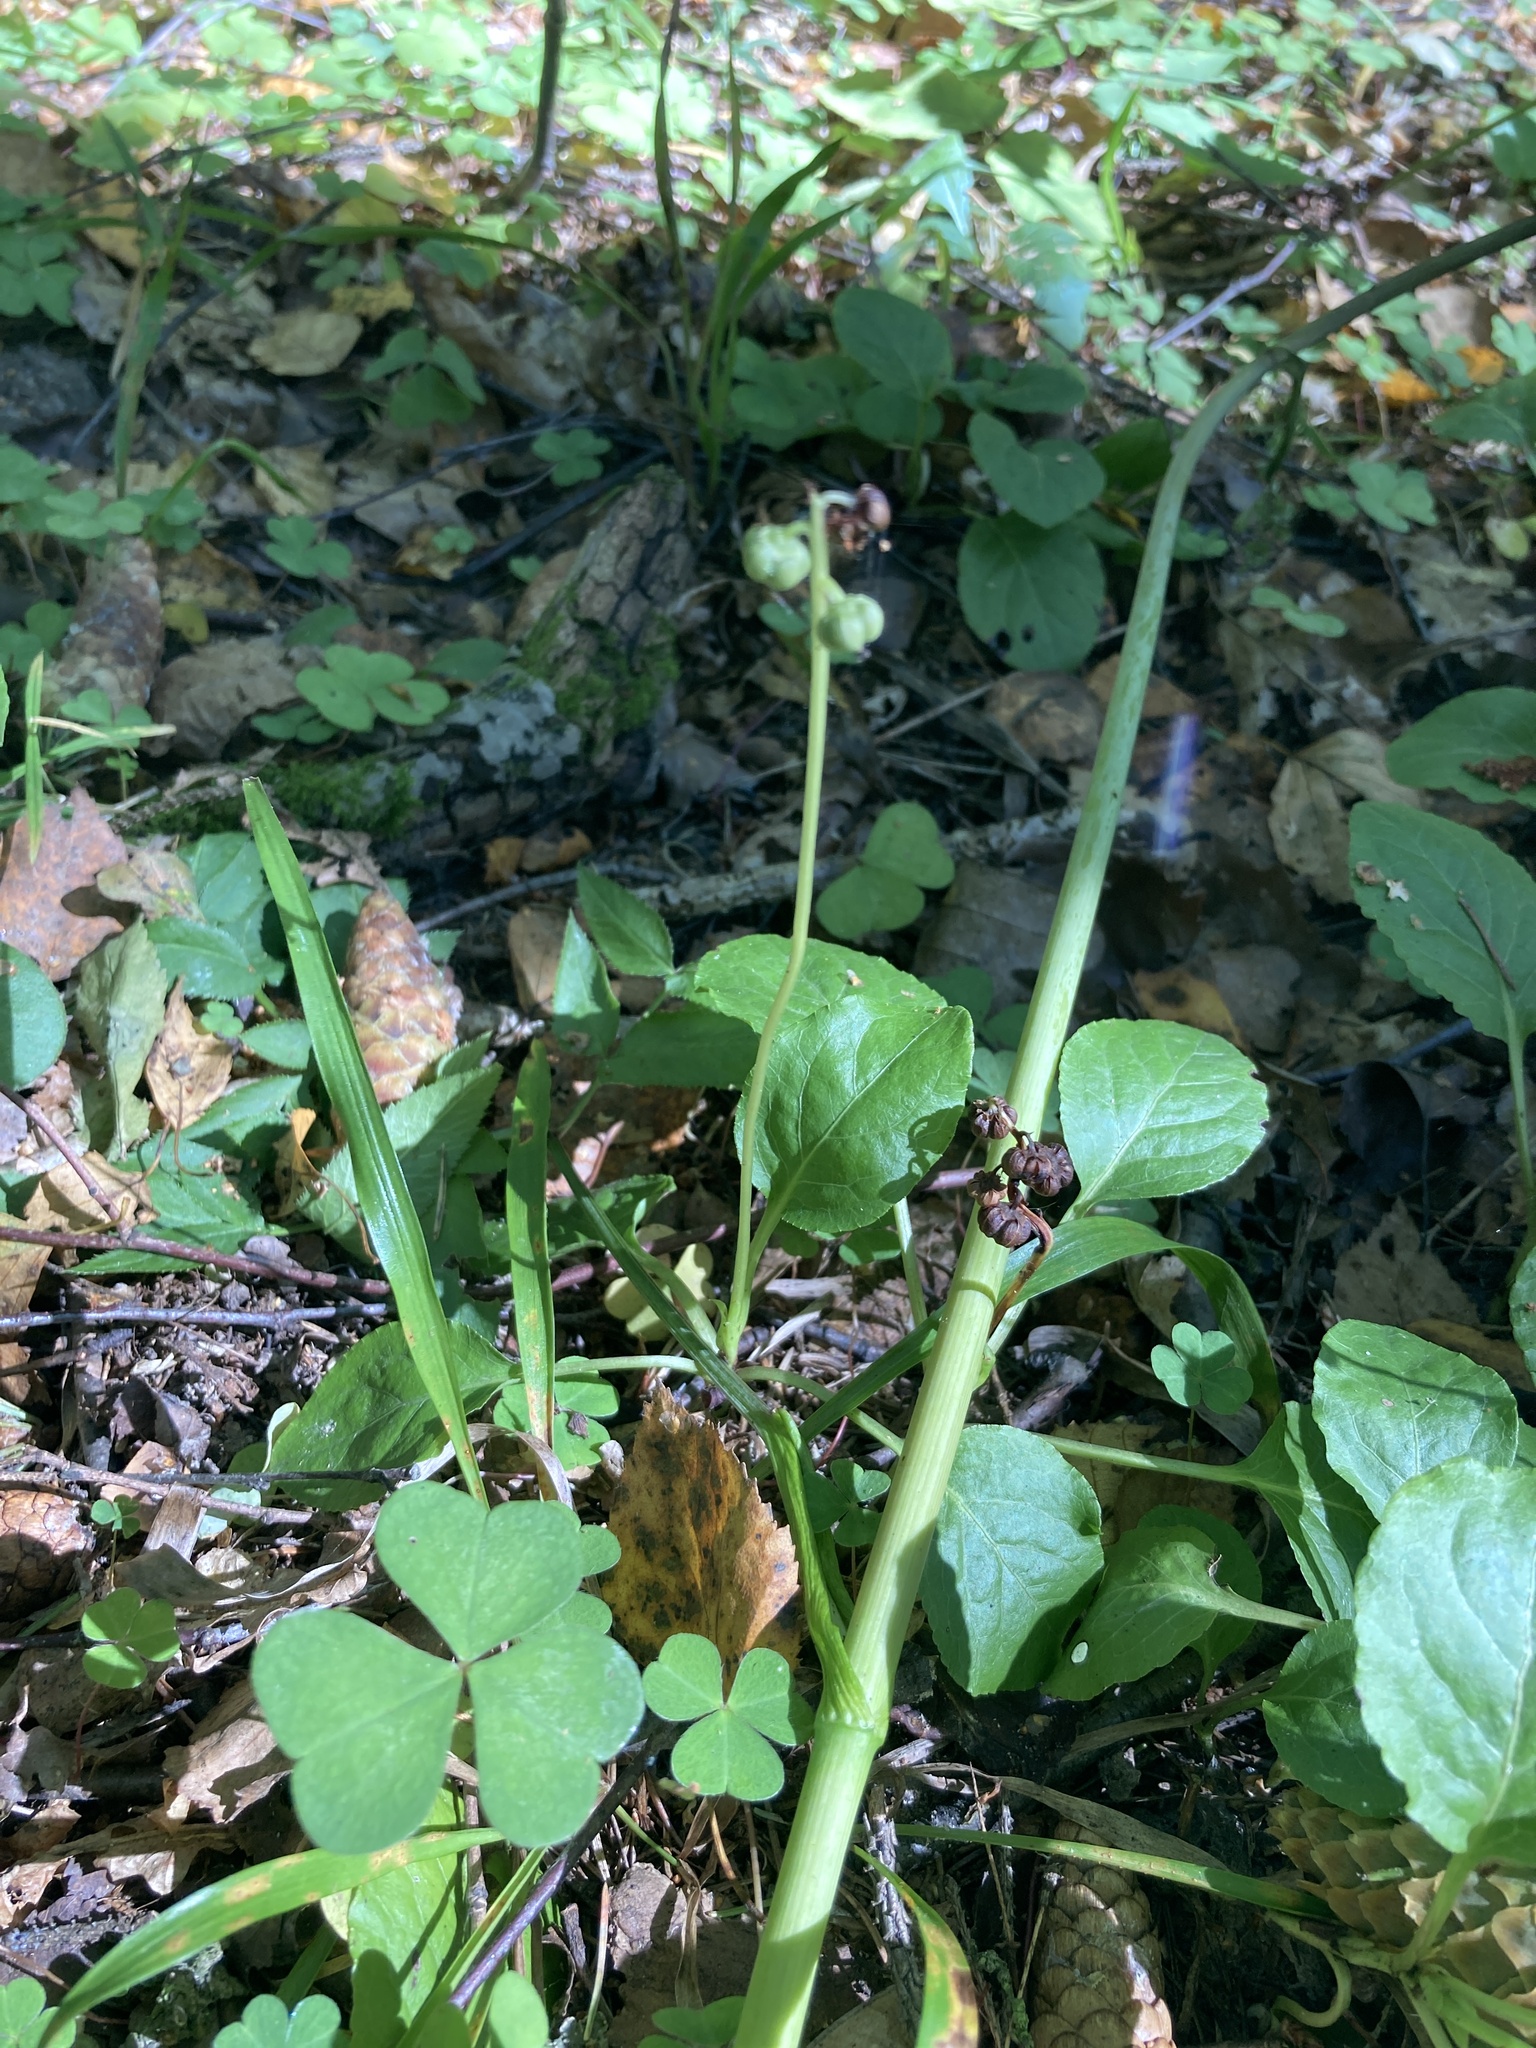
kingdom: Plantae
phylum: Tracheophyta
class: Magnoliopsida
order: Ericales
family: Ericaceae
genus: Pyrola
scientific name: Pyrola minor
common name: Common wintergreen
